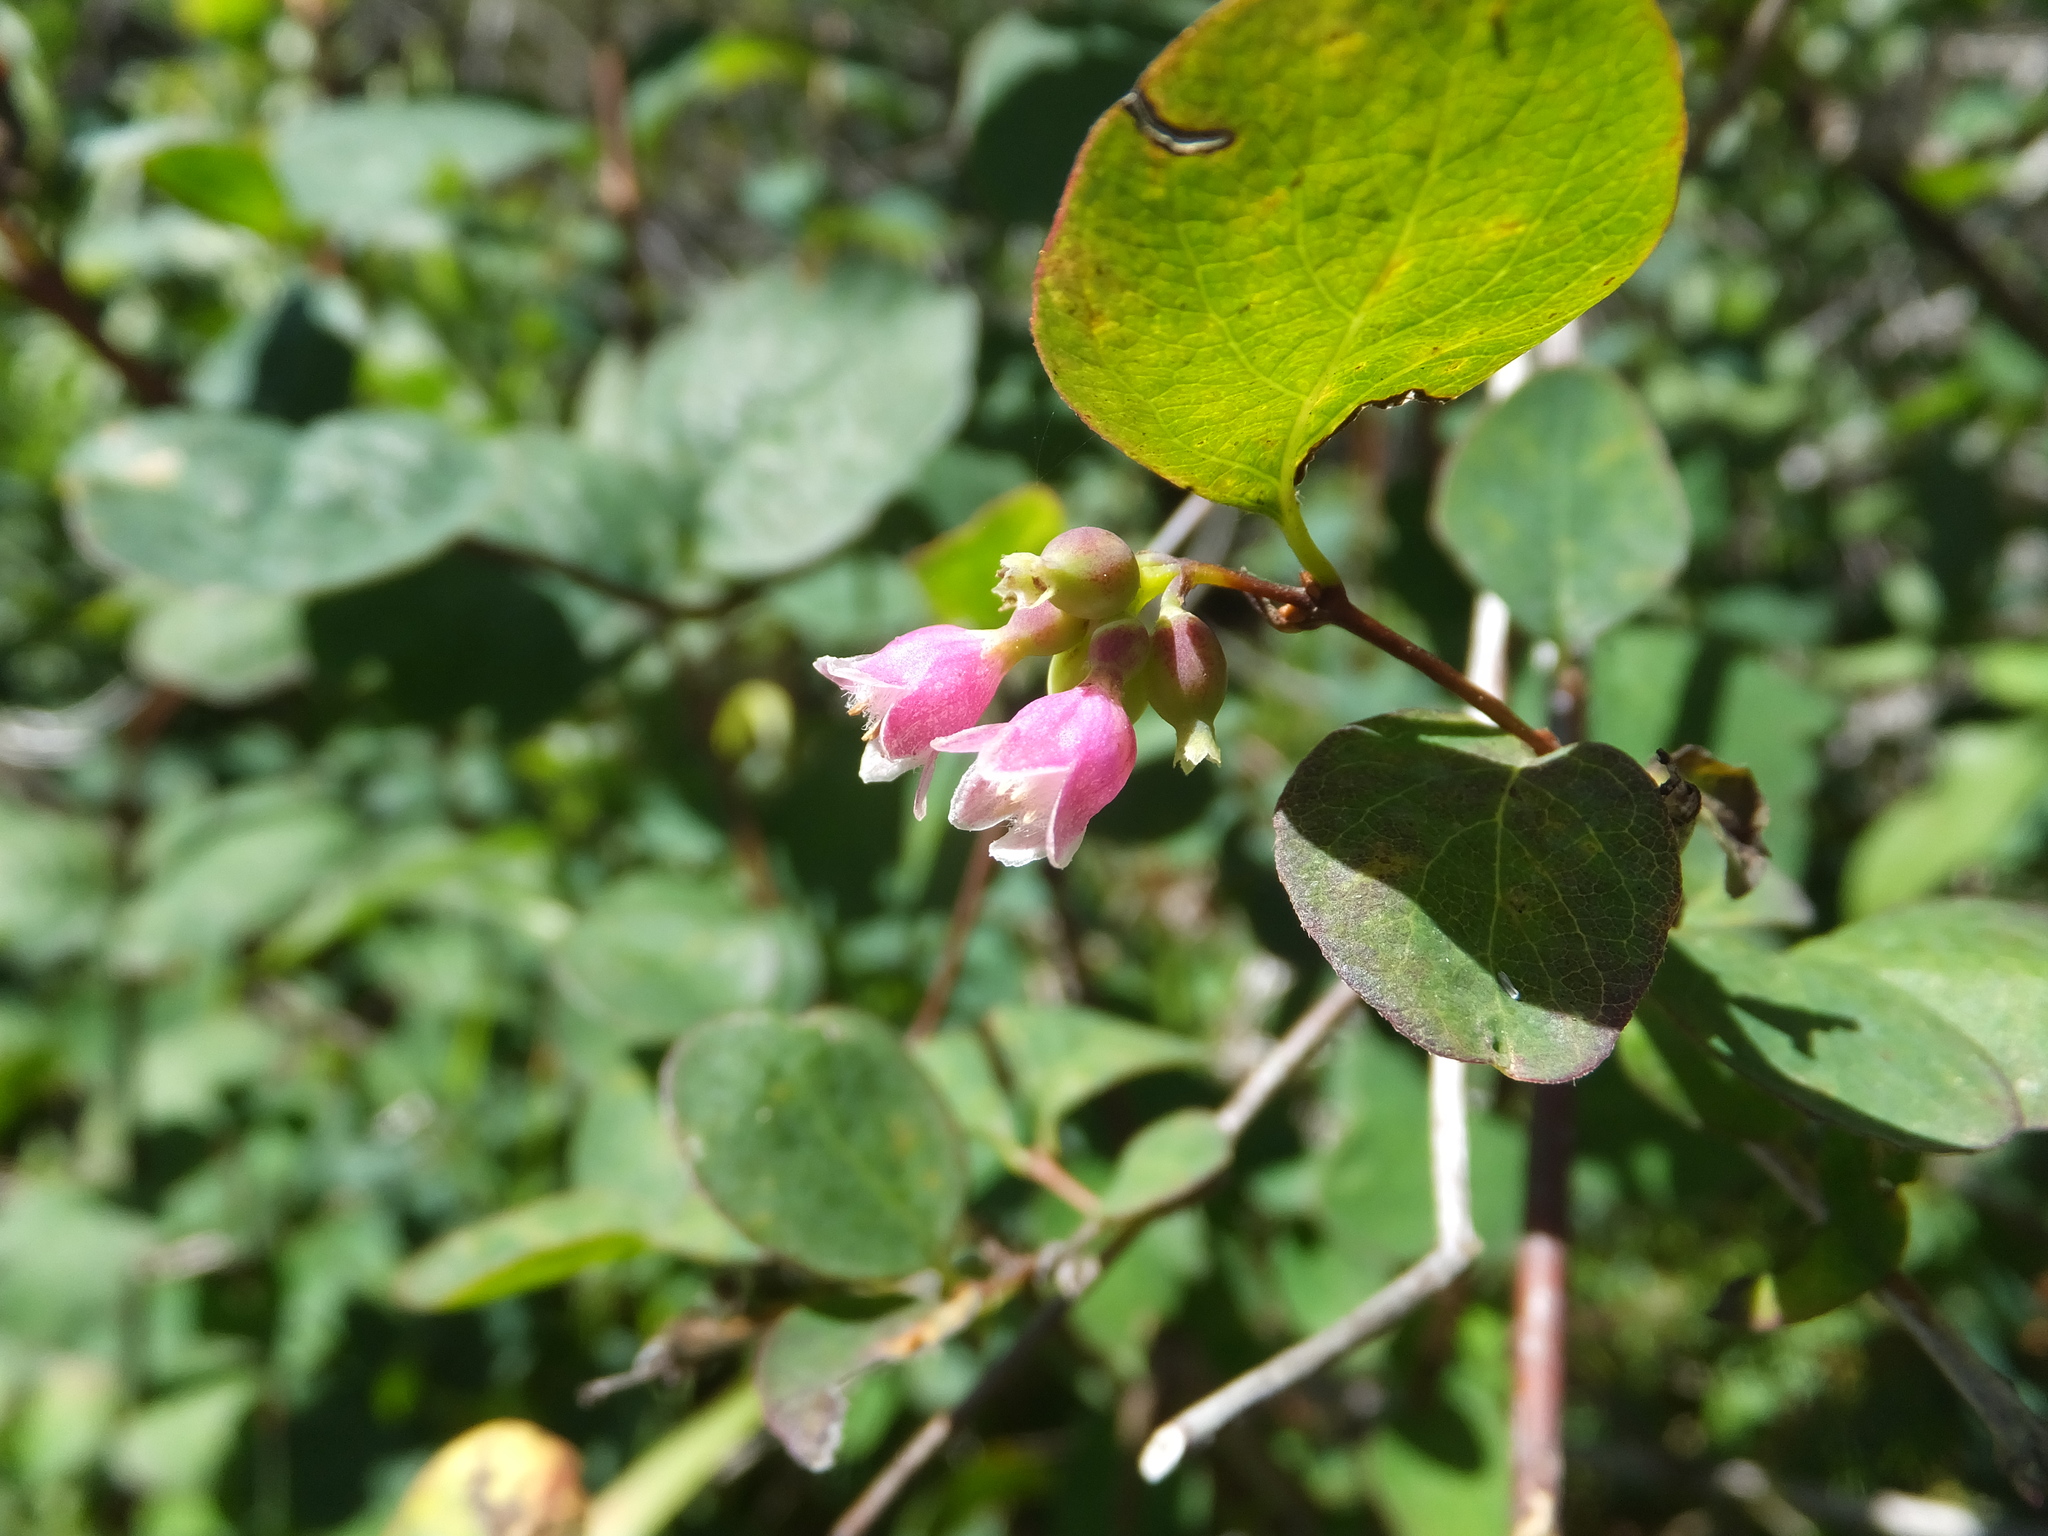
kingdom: Plantae
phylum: Tracheophyta
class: Magnoliopsida
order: Dipsacales
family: Caprifoliaceae
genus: Symphoricarpos
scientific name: Symphoricarpos albus
